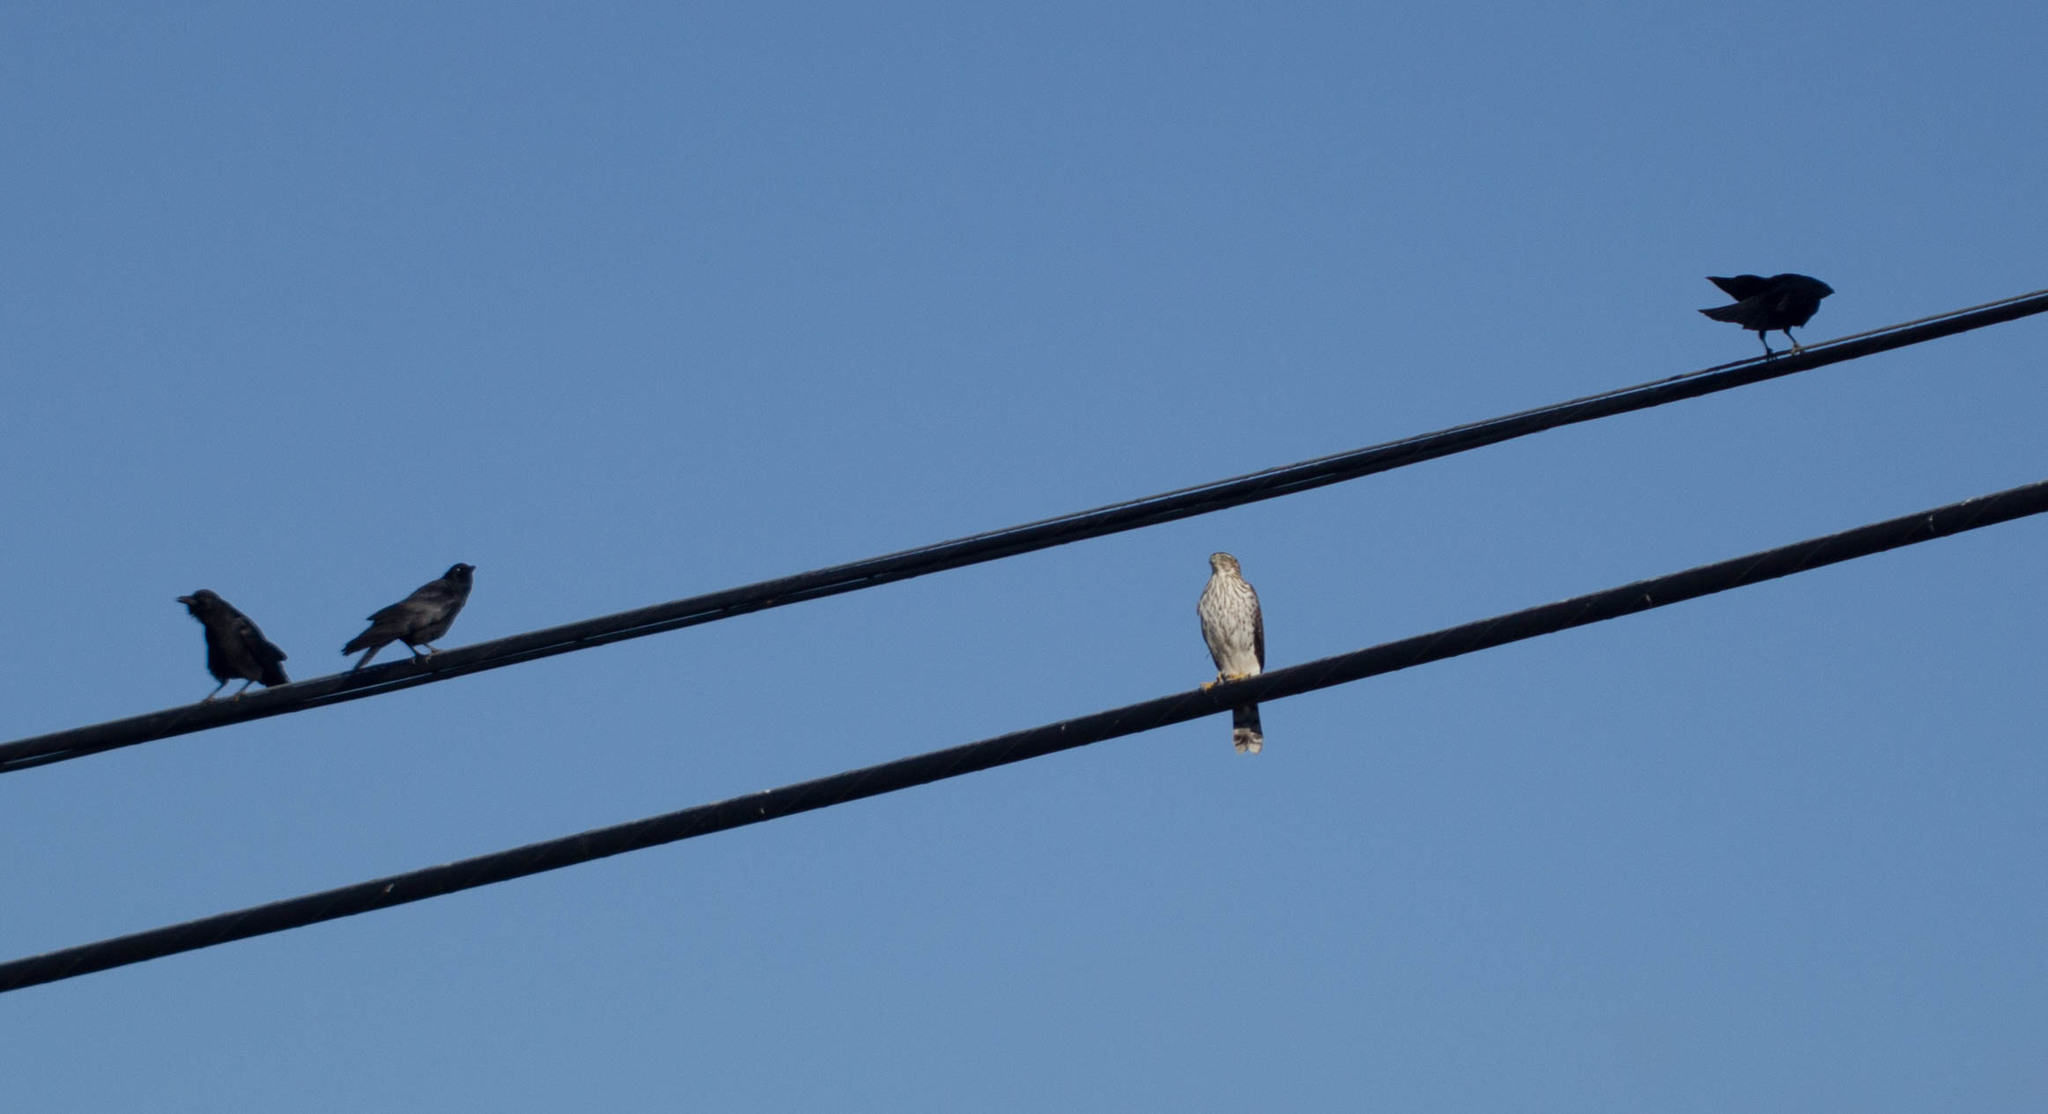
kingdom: Animalia
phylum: Chordata
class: Aves
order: Accipitriformes
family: Accipitridae
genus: Accipiter
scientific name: Accipiter cooperii
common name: Cooper's hawk
